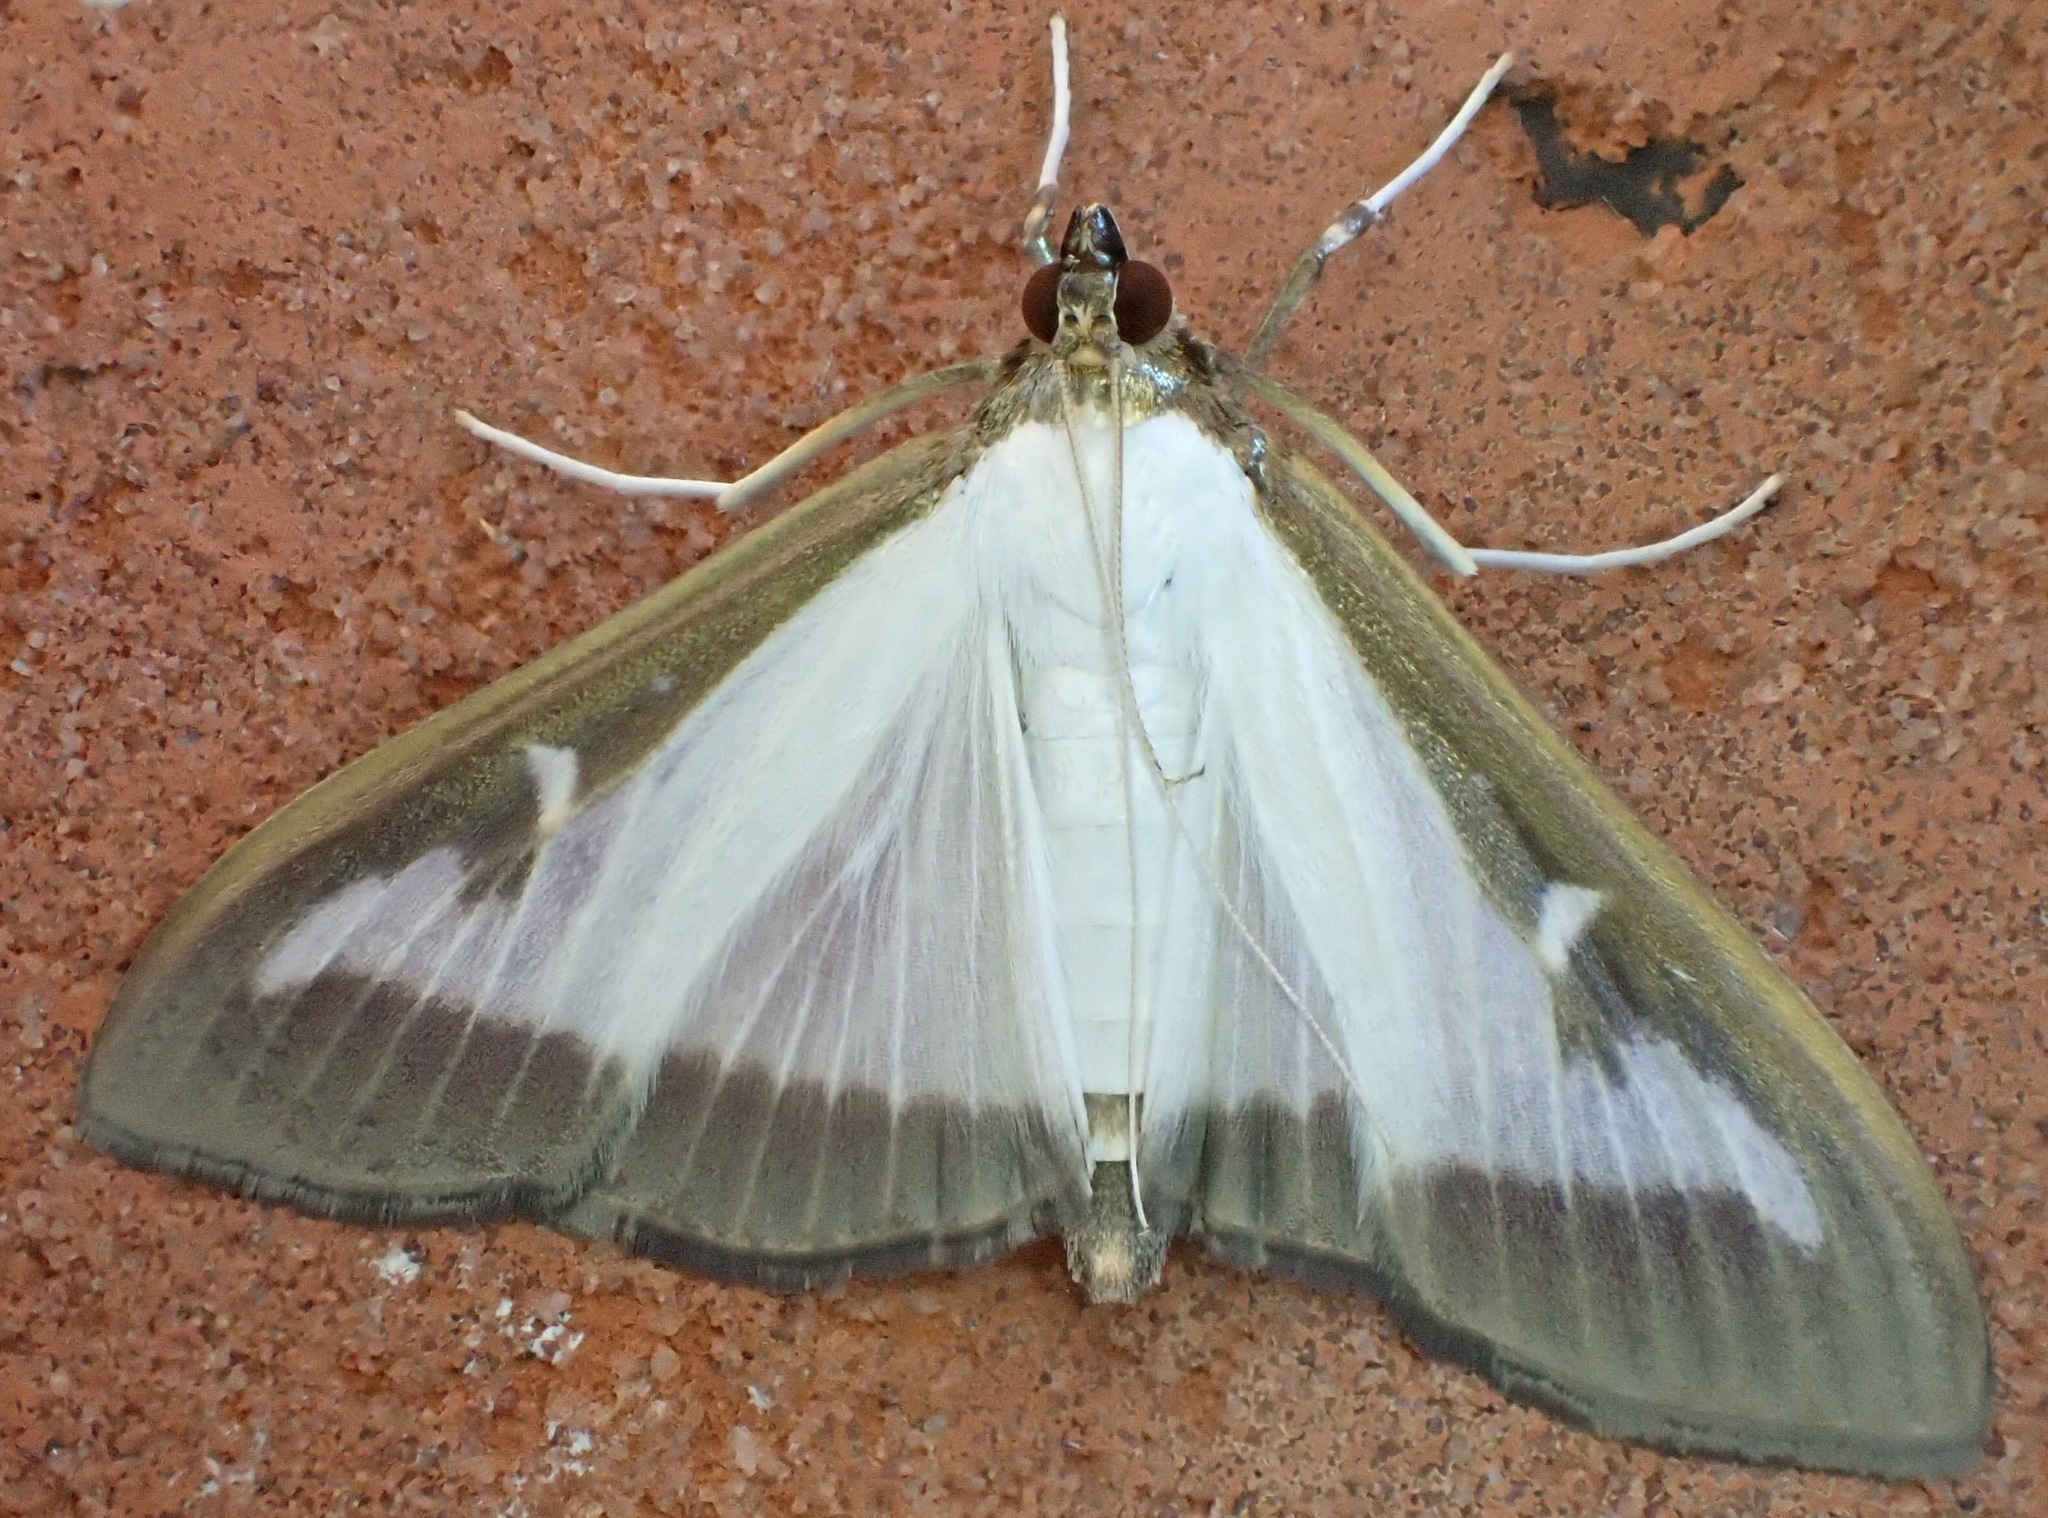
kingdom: Animalia
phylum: Arthropoda
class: Insecta
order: Lepidoptera
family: Crambidae
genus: Cydalima
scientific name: Cydalima perspectalis
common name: Box tree moth
